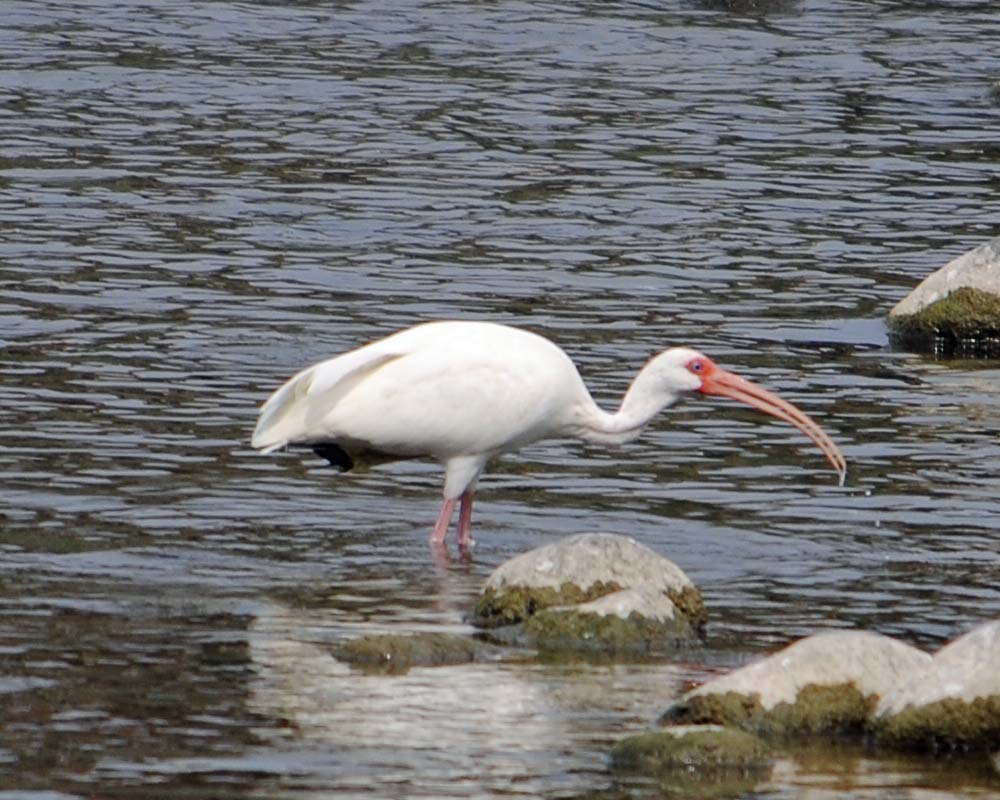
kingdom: Animalia
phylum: Chordata
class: Aves
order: Pelecaniformes
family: Threskiornithidae
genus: Eudocimus
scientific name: Eudocimus albus
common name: White ibis
